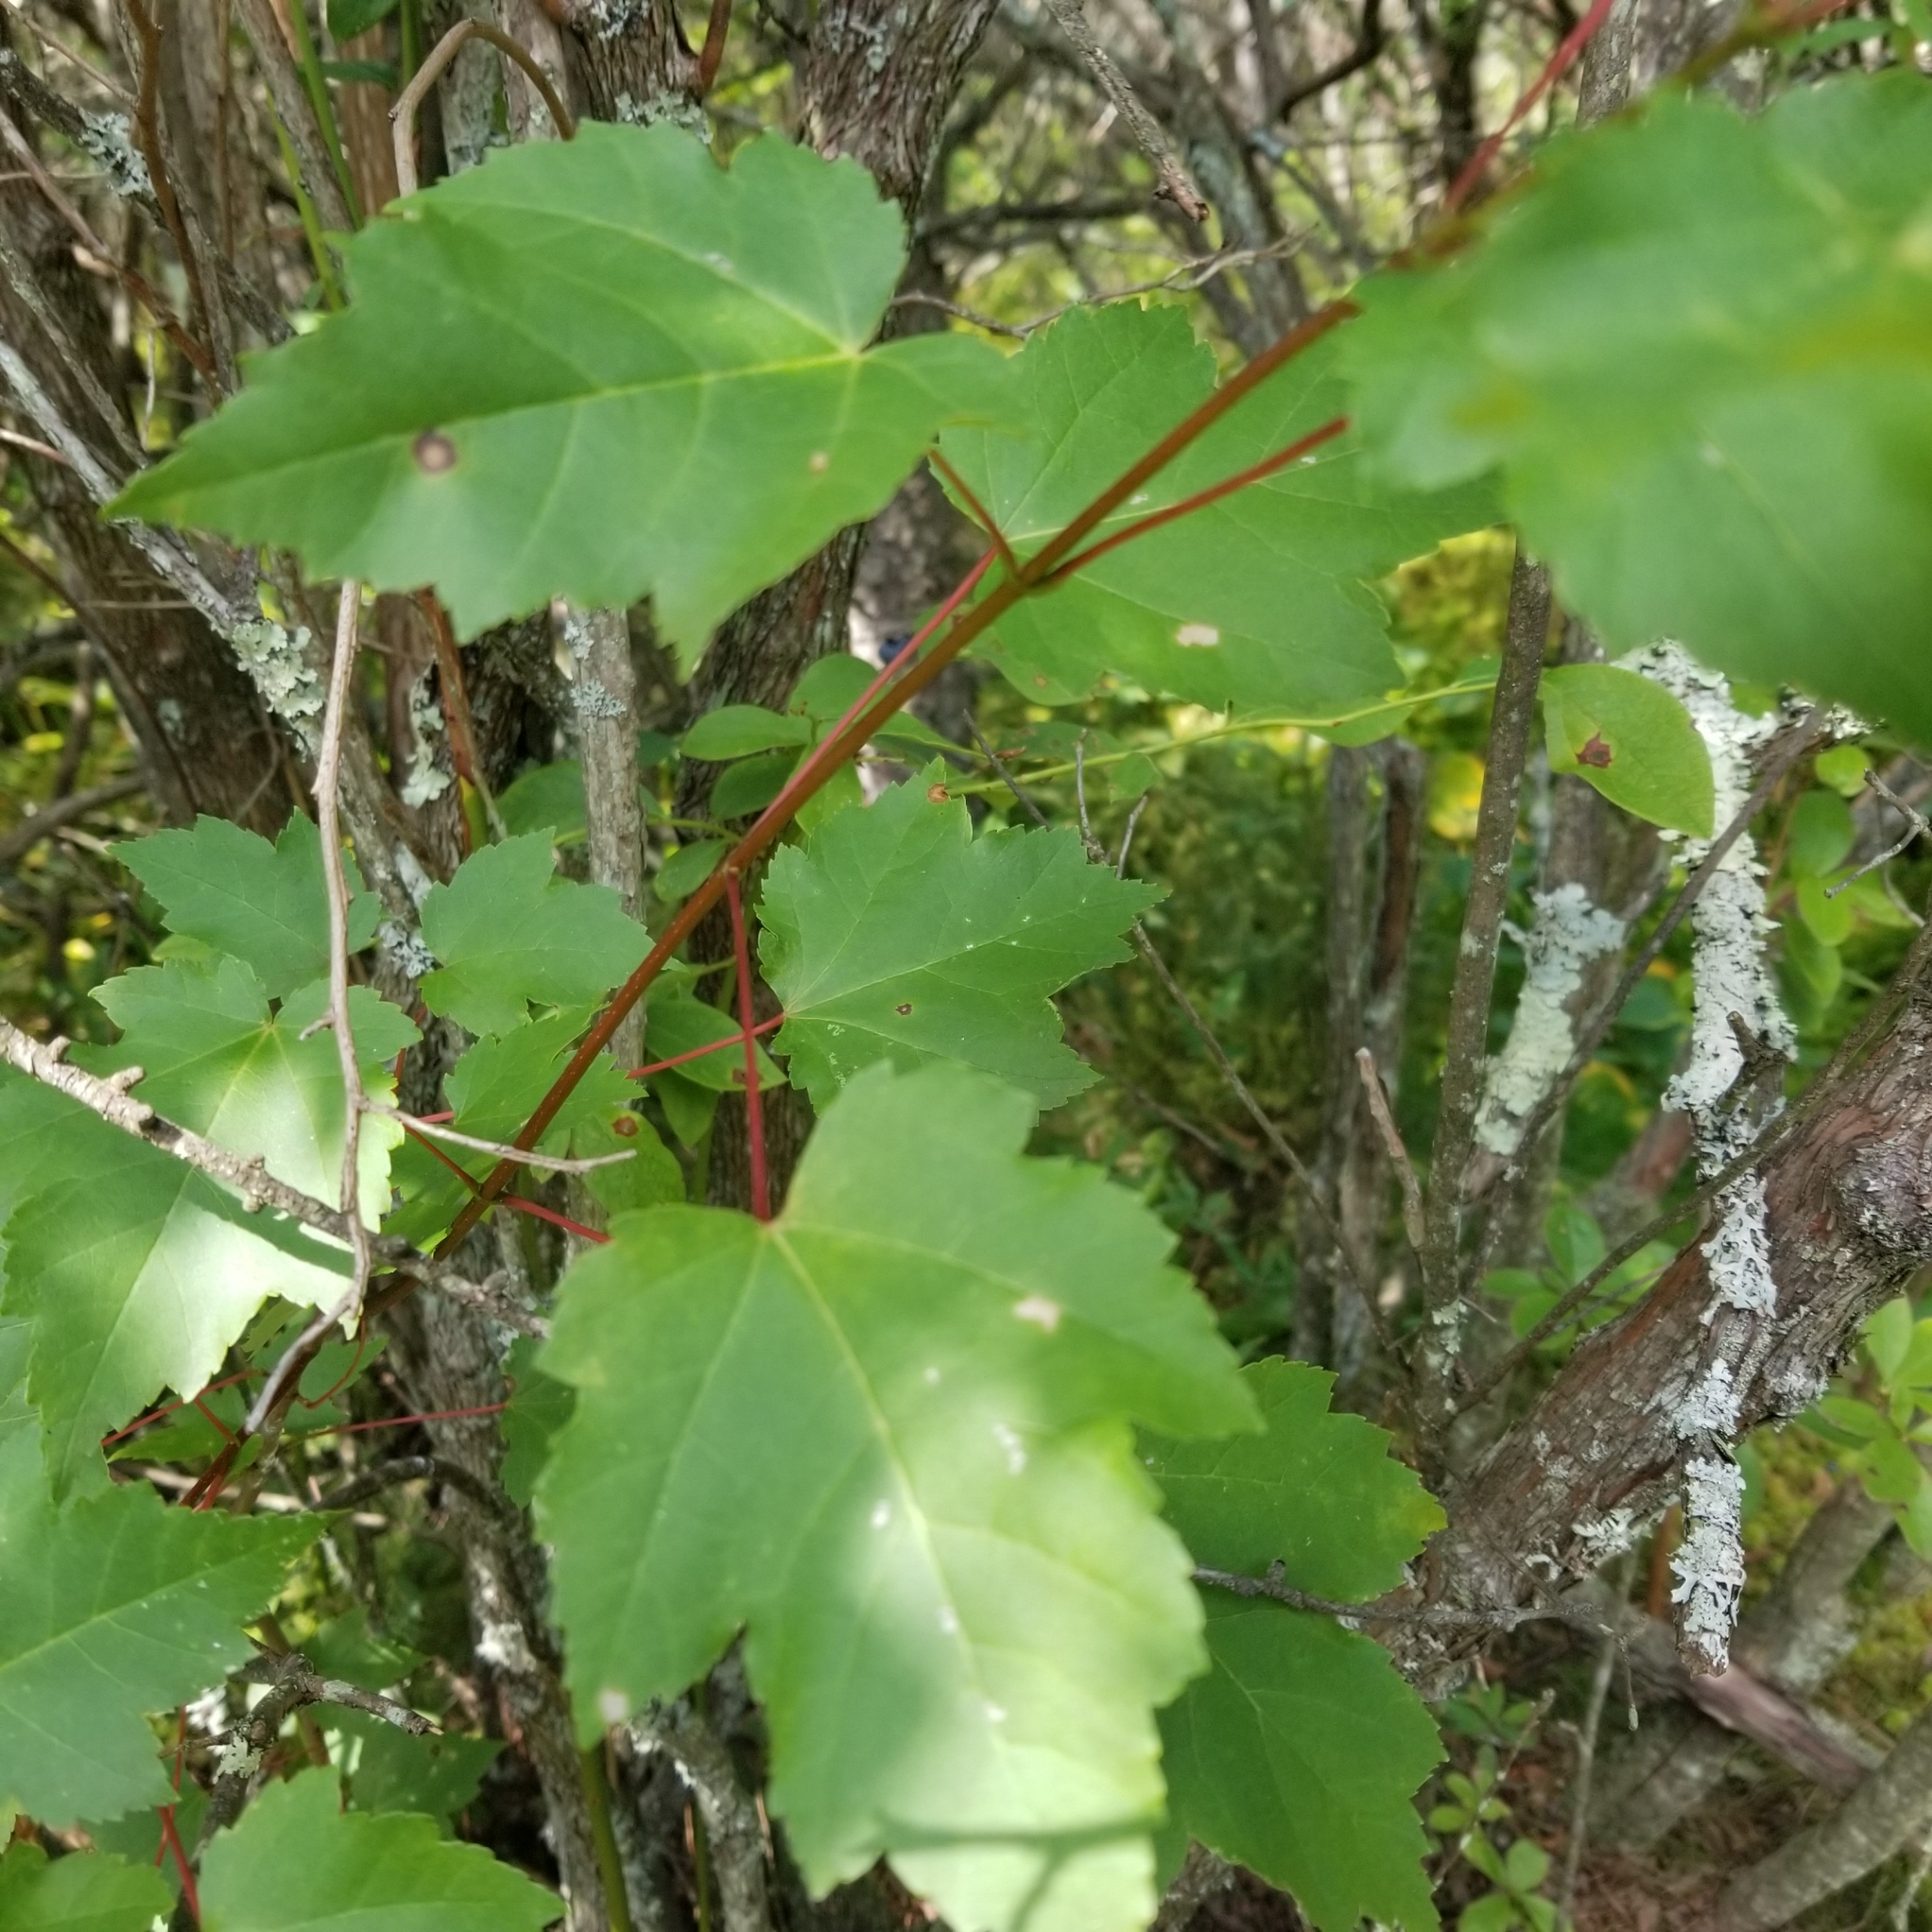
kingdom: Plantae
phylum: Tracheophyta
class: Magnoliopsida
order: Sapindales
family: Sapindaceae
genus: Acer
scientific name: Acer rubrum
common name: Red maple
